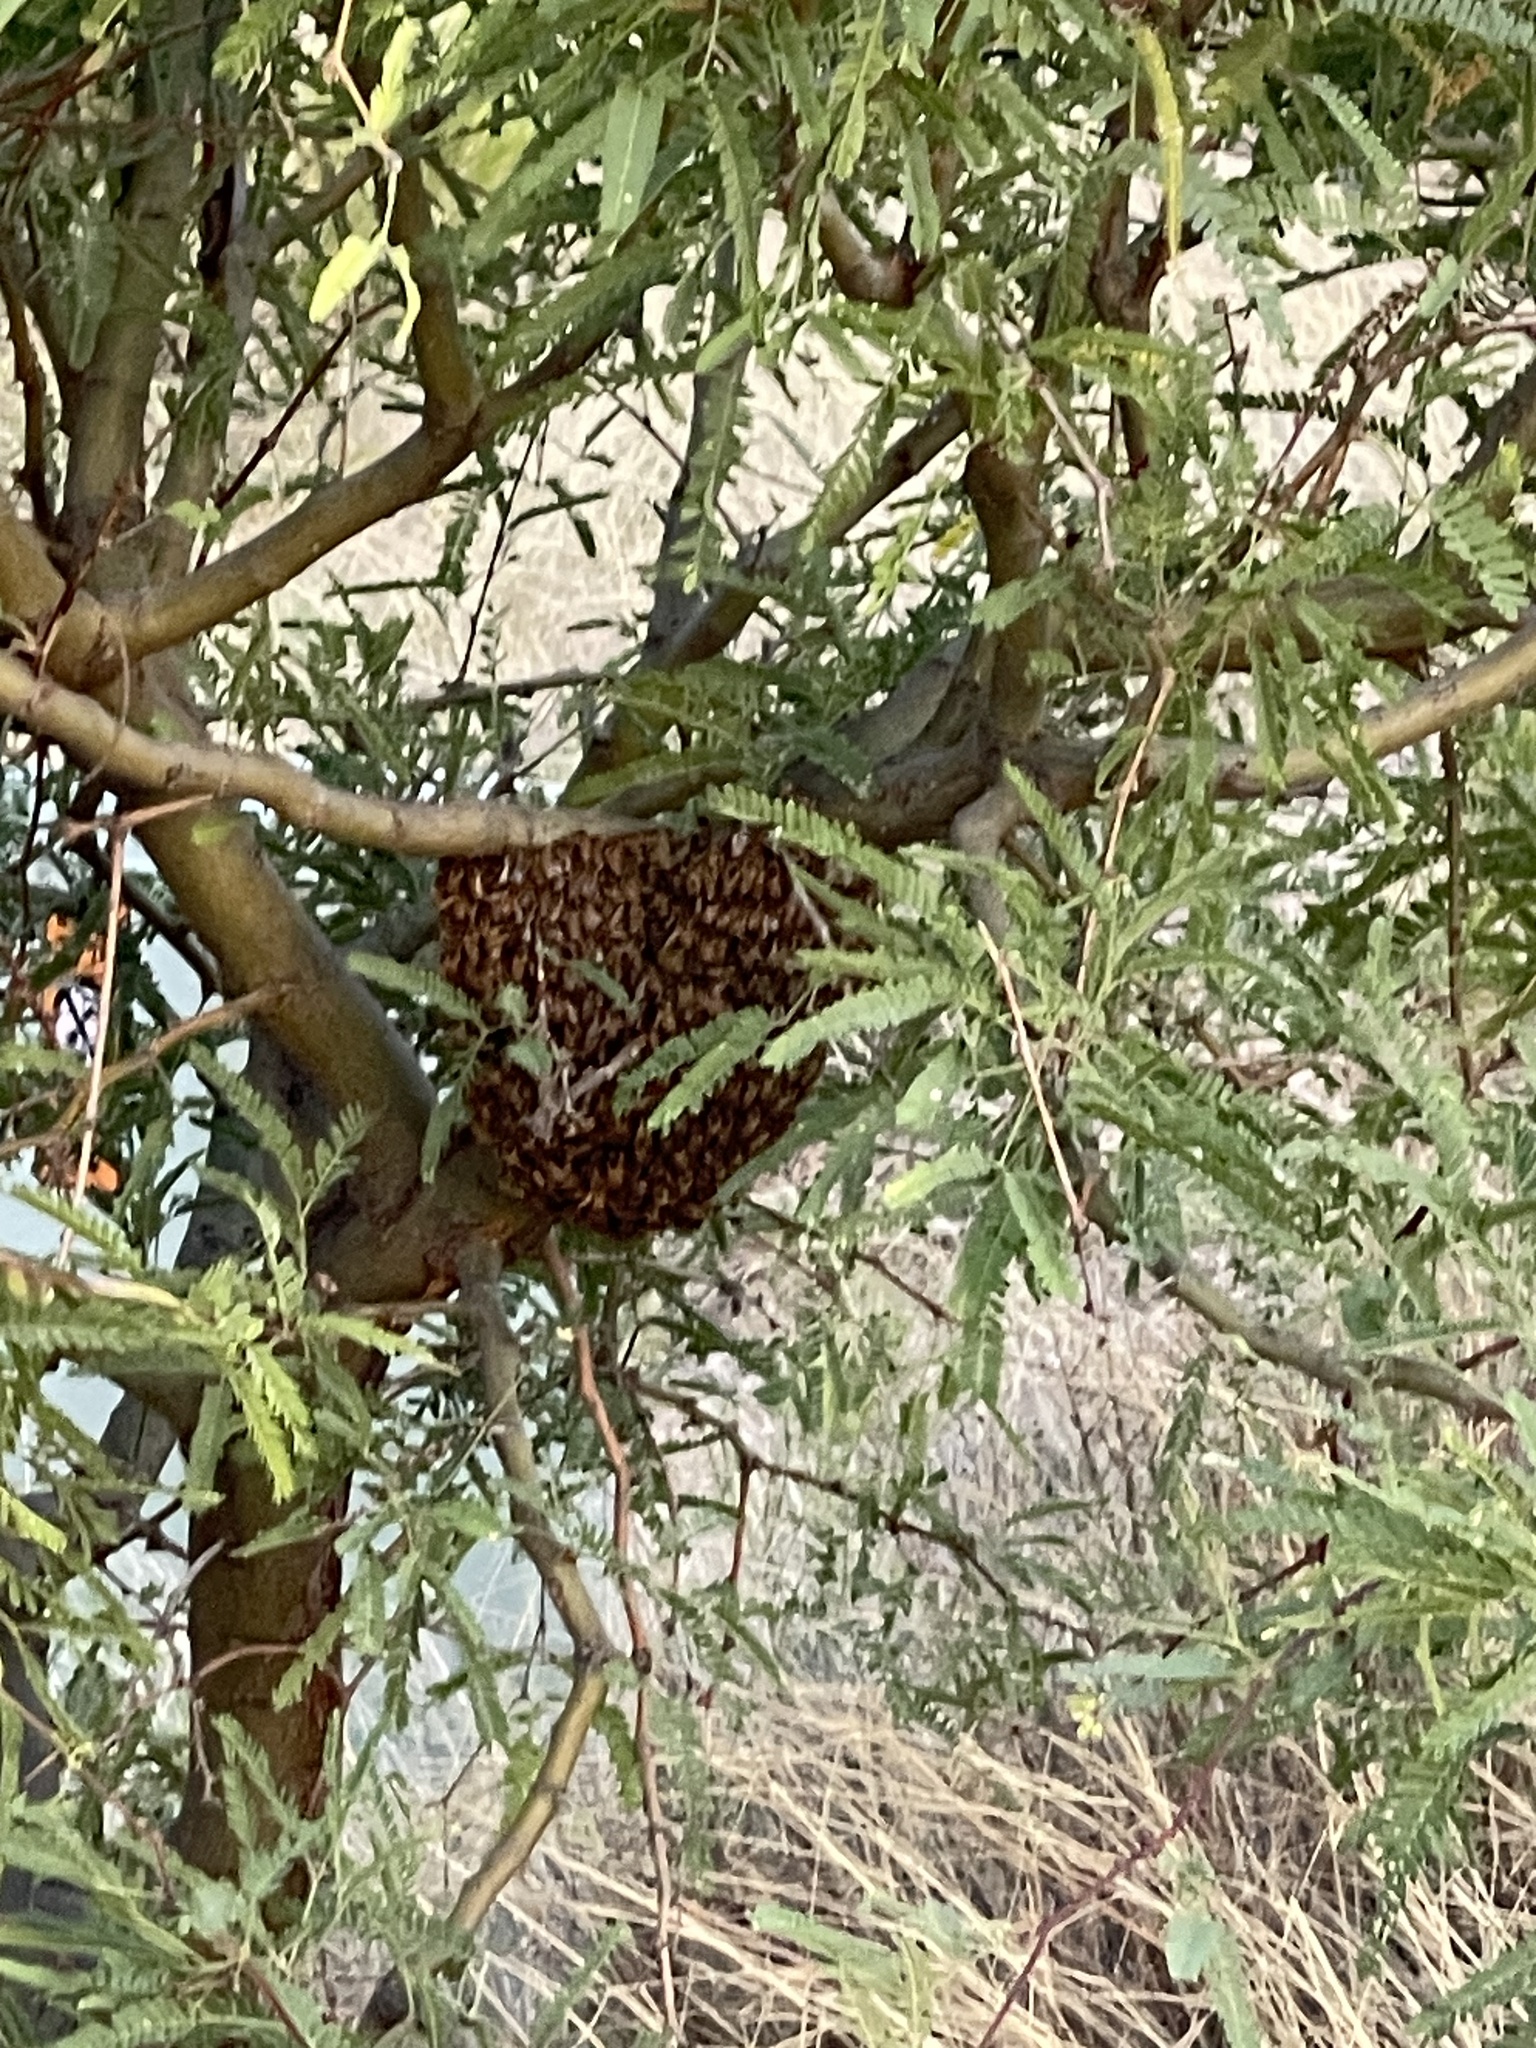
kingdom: Animalia
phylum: Arthropoda
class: Insecta
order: Hymenoptera
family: Apidae
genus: Apis
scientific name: Apis mellifera
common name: Honey bee
